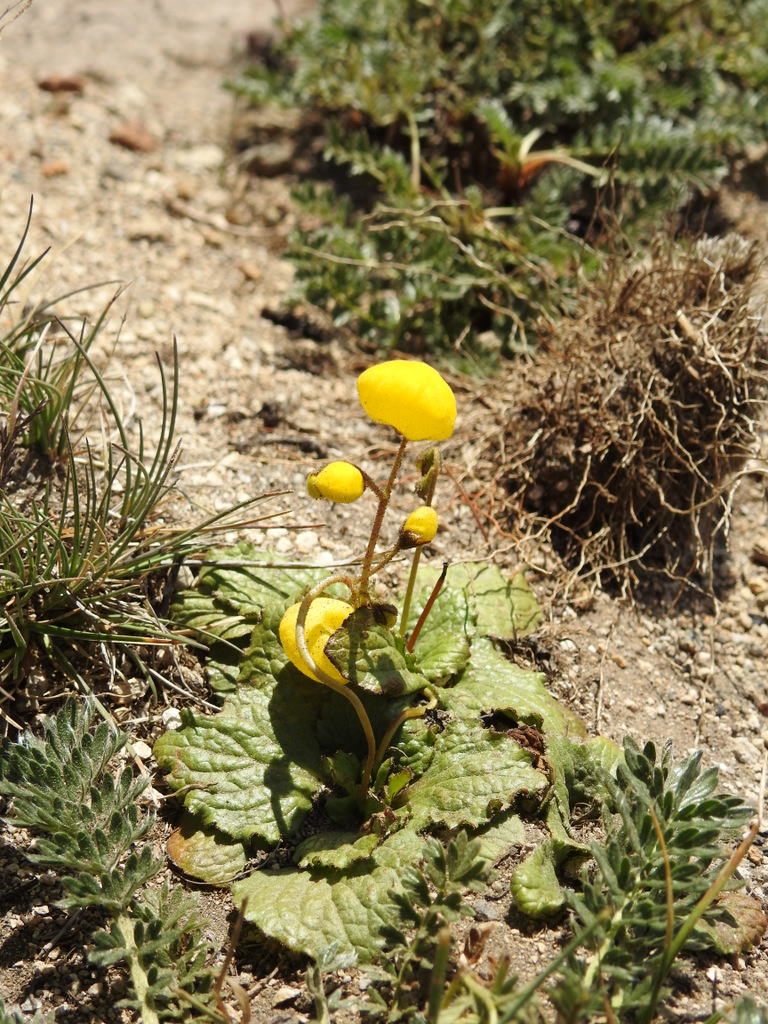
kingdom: Plantae
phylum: Tracheophyta
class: Magnoliopsida
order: Lamiales
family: Calceolariaceae
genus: Calceolaria
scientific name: Calceolaria filicaulis
